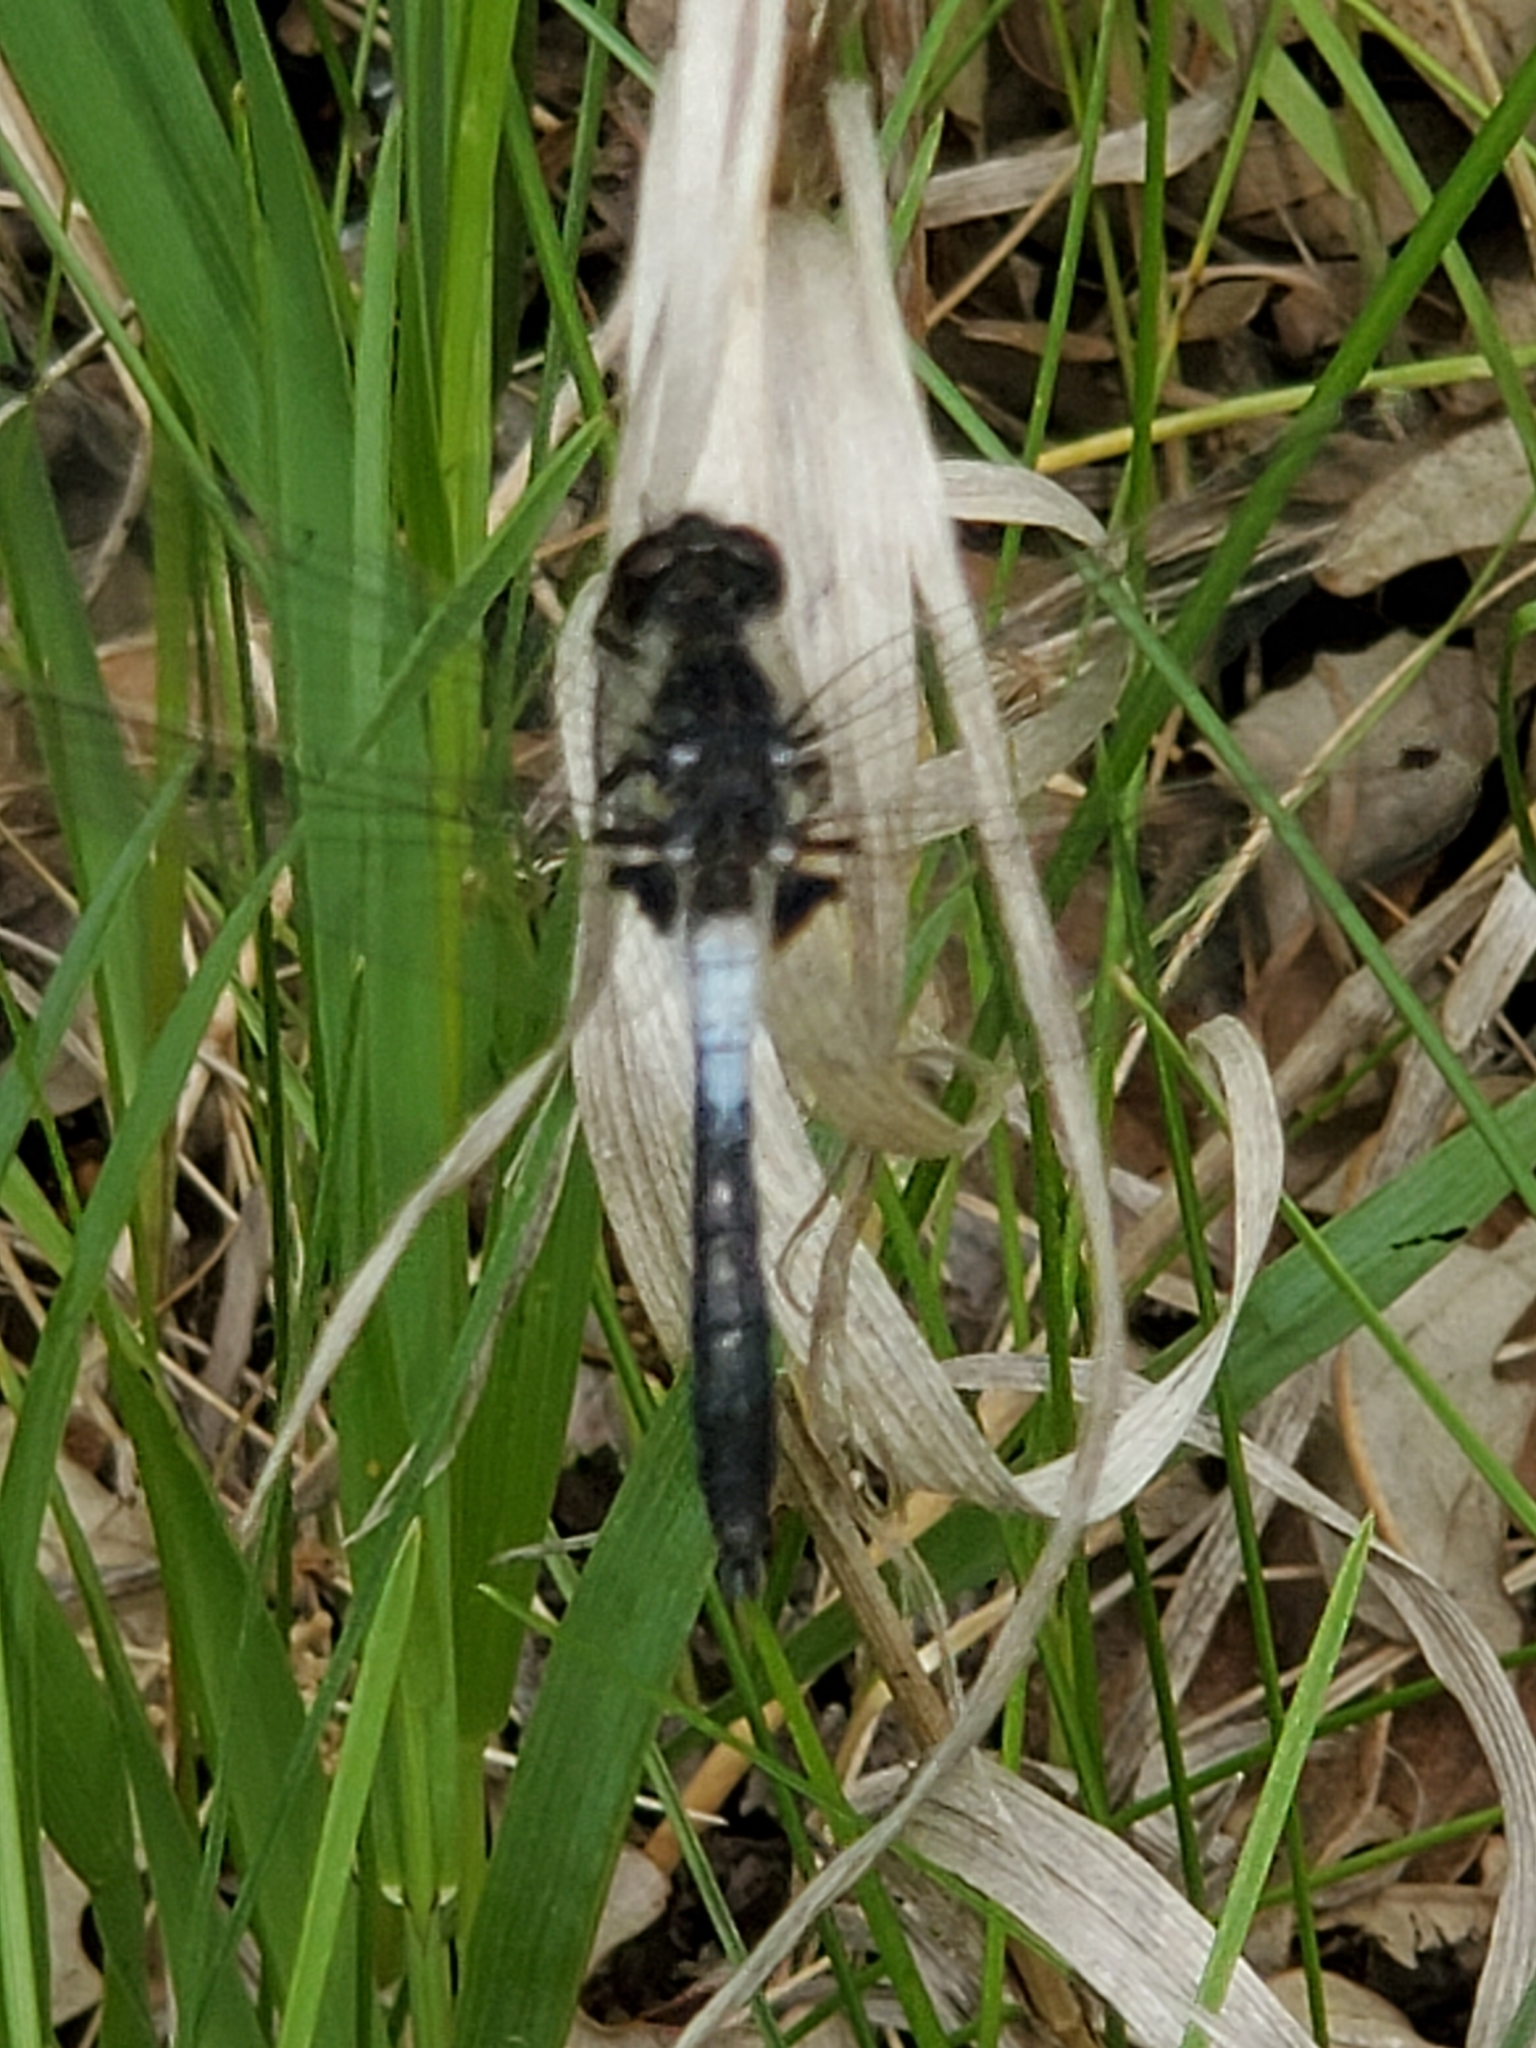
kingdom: Animalia
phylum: Arthropoda
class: Insecta
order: Odonata
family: Libellulidae
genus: Leucorrhinia
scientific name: Leucorrhinia frigida
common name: Frosted whiteface
